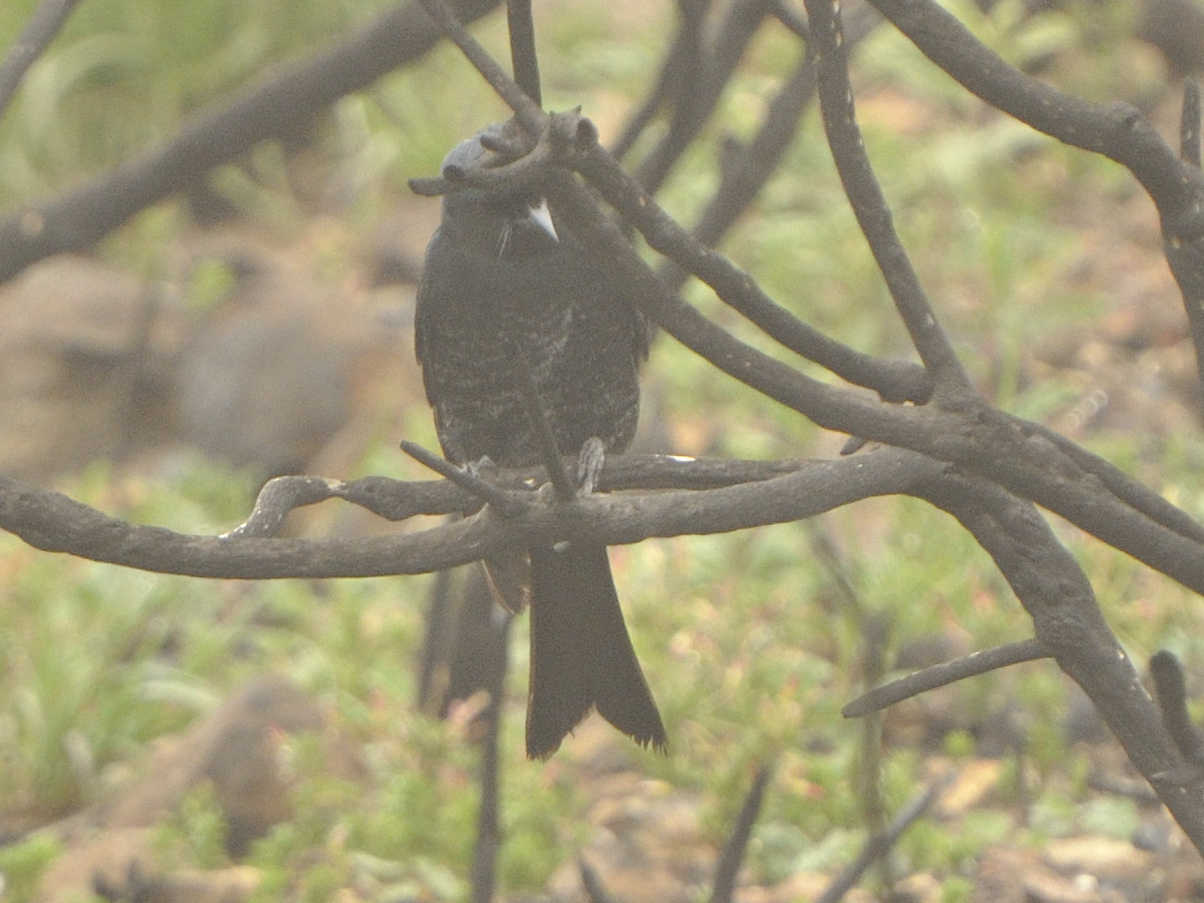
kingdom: Animalia
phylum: Chordata
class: Aves
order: Passeriformes
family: Dicruridae
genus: Dicrurus
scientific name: Dicrurus adsimilis
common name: Fork-tailed drongo
